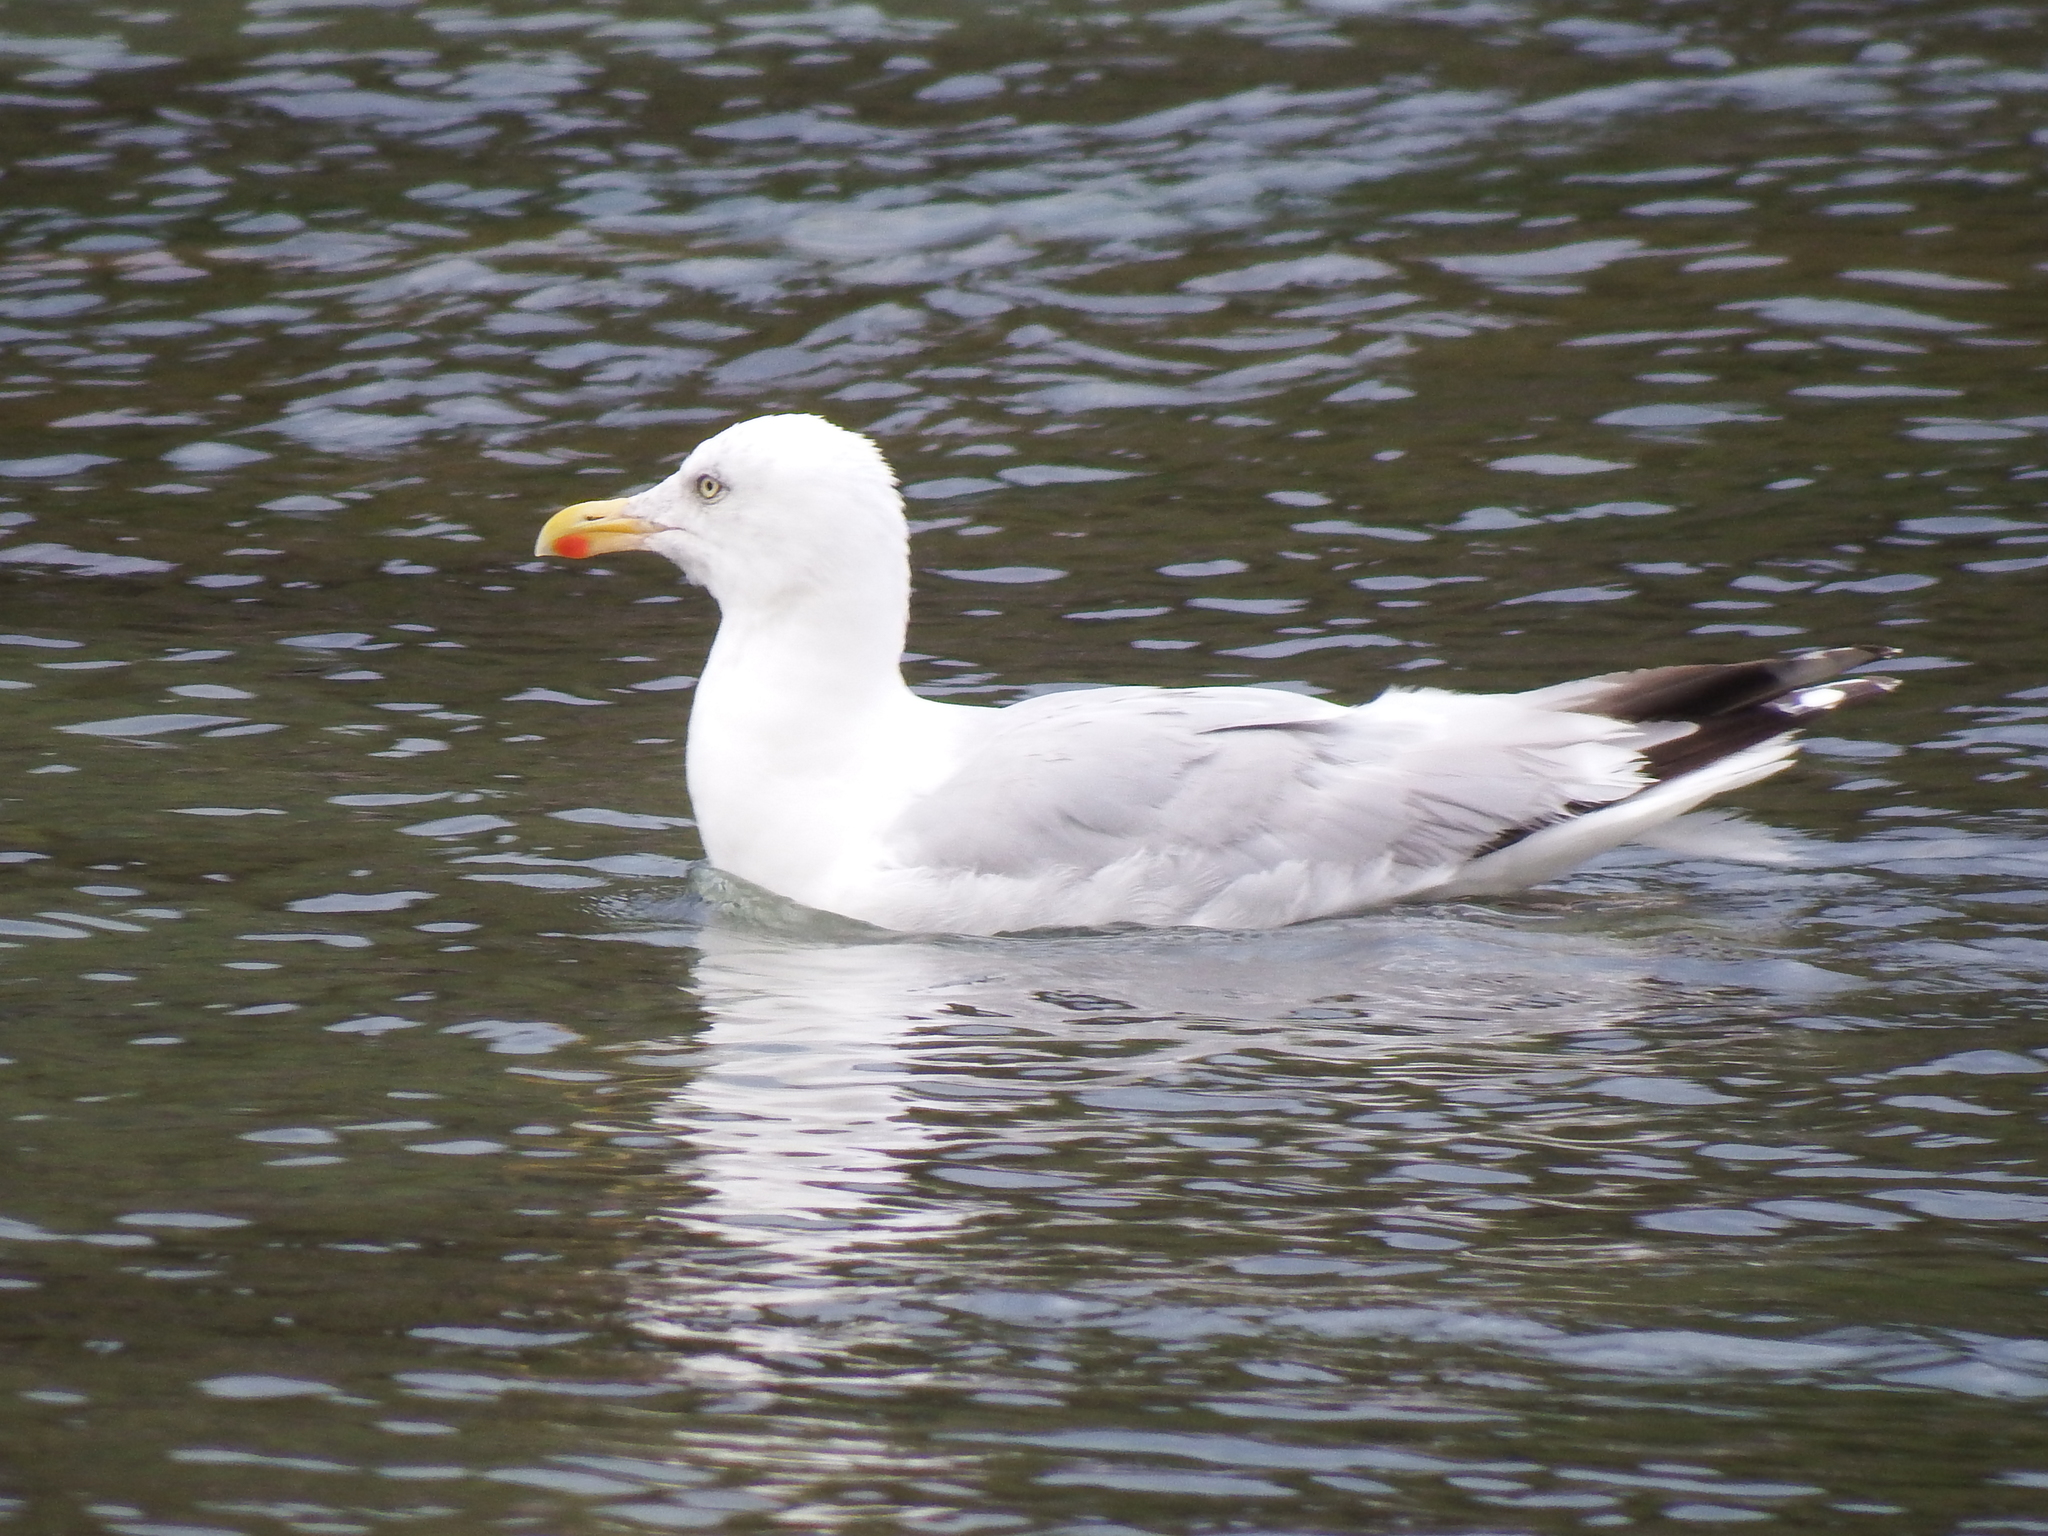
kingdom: Animalia
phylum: Chordata
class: Aves
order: Charadriiformes
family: Laridae
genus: Larus
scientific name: Larus argentatus
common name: Herring gull
